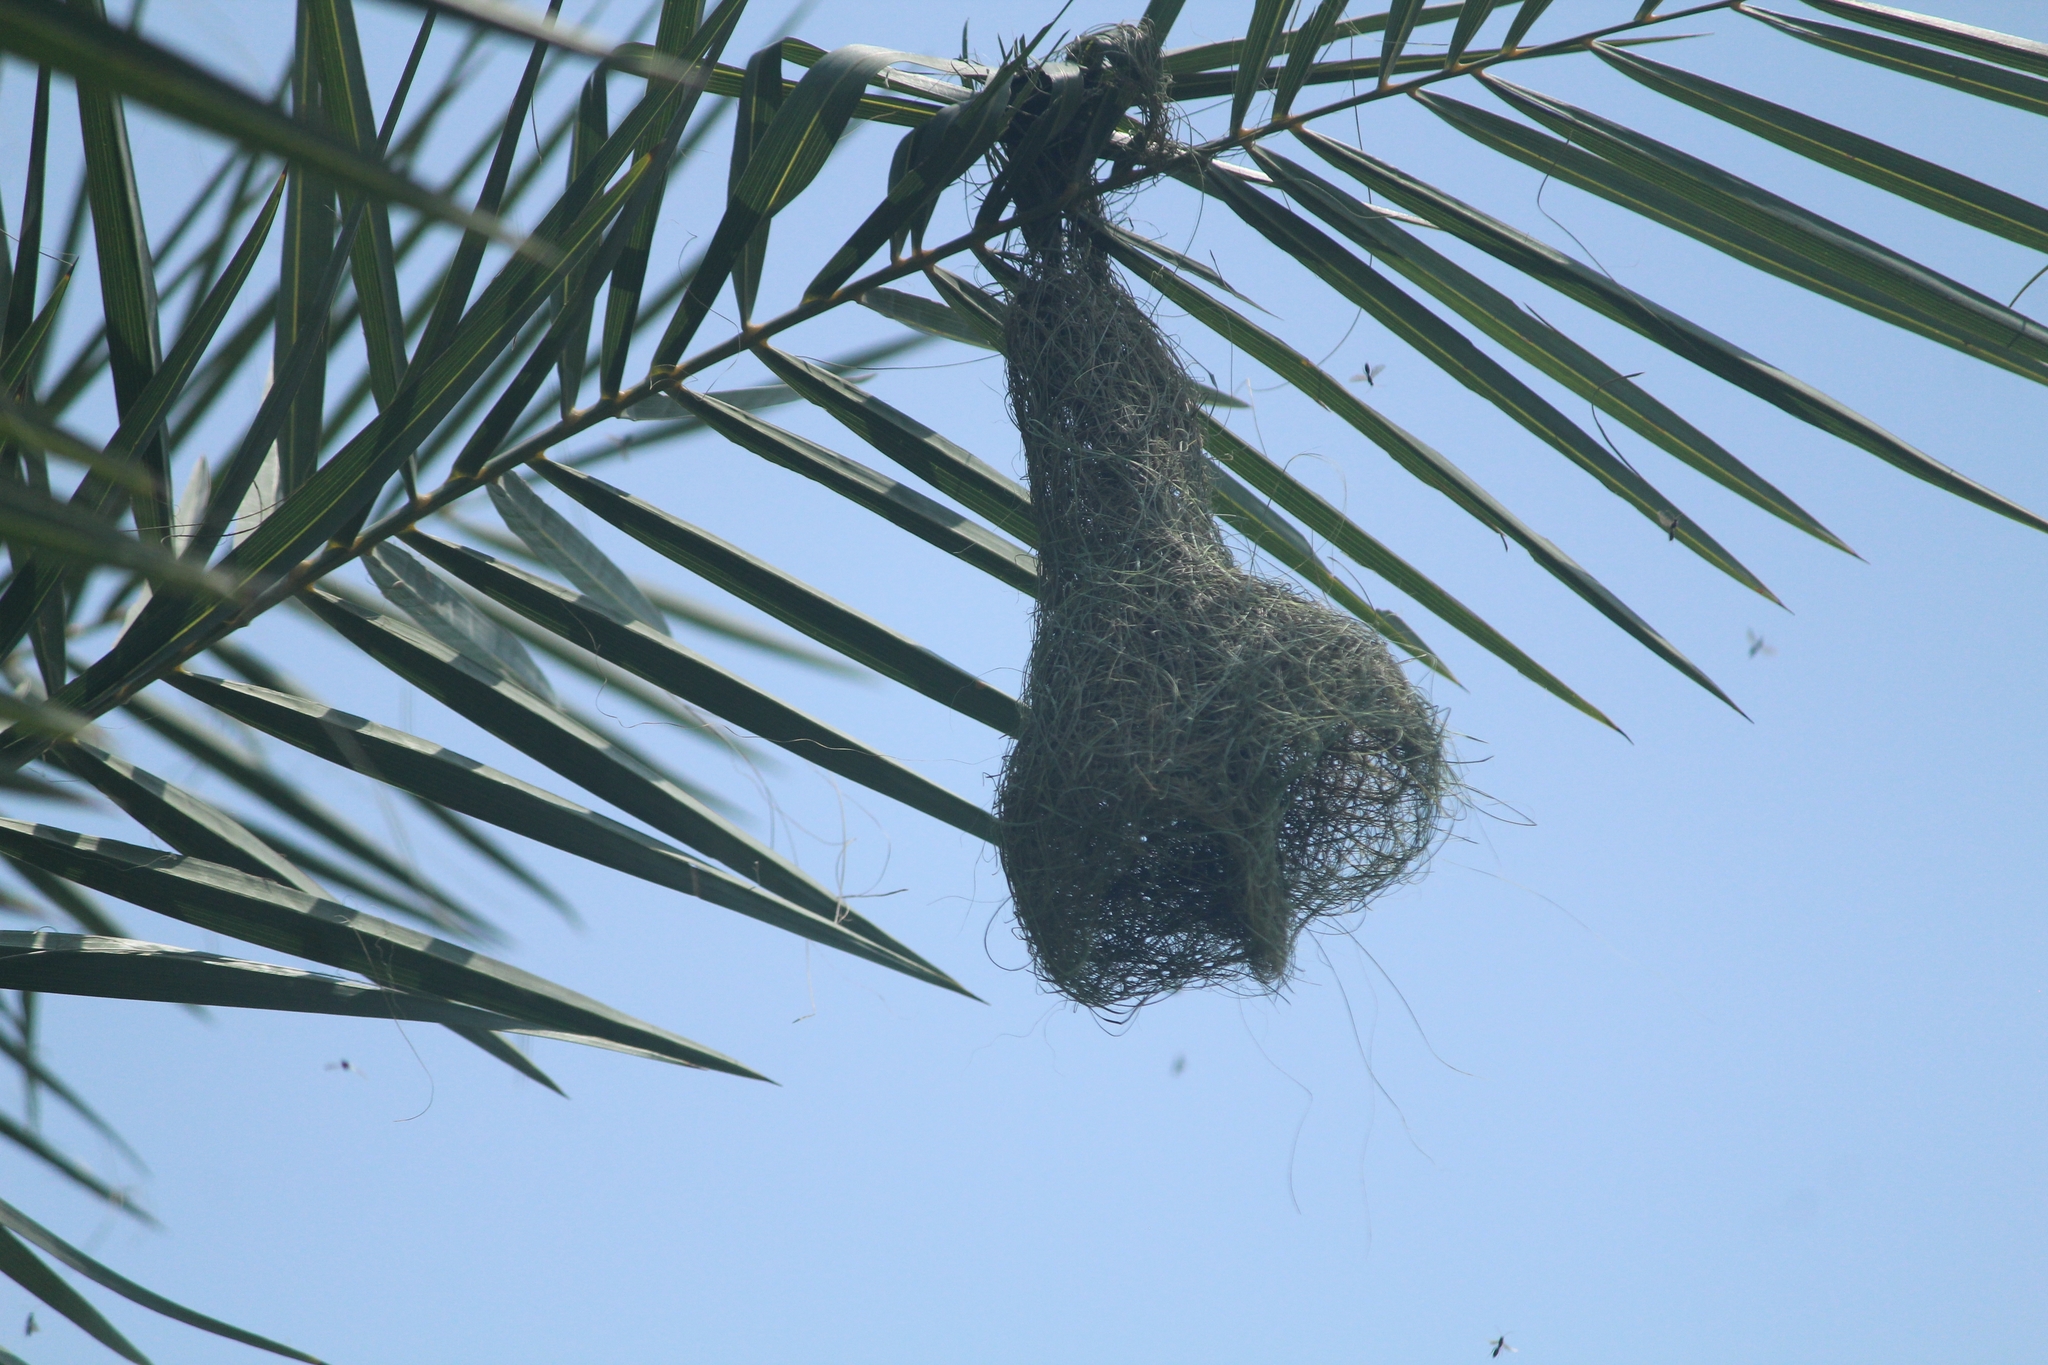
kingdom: Animalia
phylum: Chordata
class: Aves
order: Passeriformes
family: Ploceidae
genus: Ploceus
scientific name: Ploceus philippinus
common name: Baya weaver
